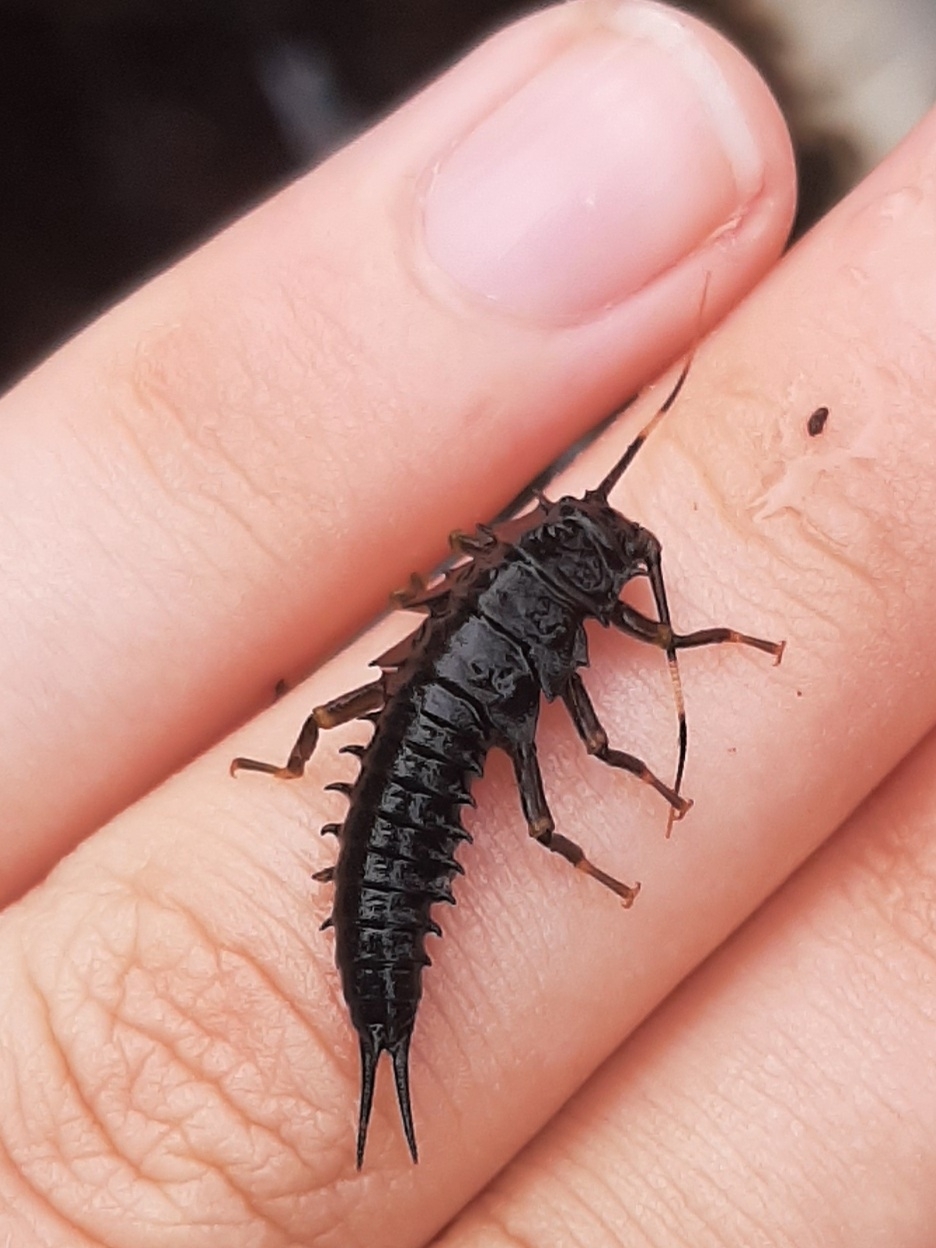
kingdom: Animalia
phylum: Arthropoda
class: Insecta
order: Plecoptera
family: Pteronarcyidae
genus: Pteronarcys
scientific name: Pteronarcys biloba
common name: Knobbed salmonfly
